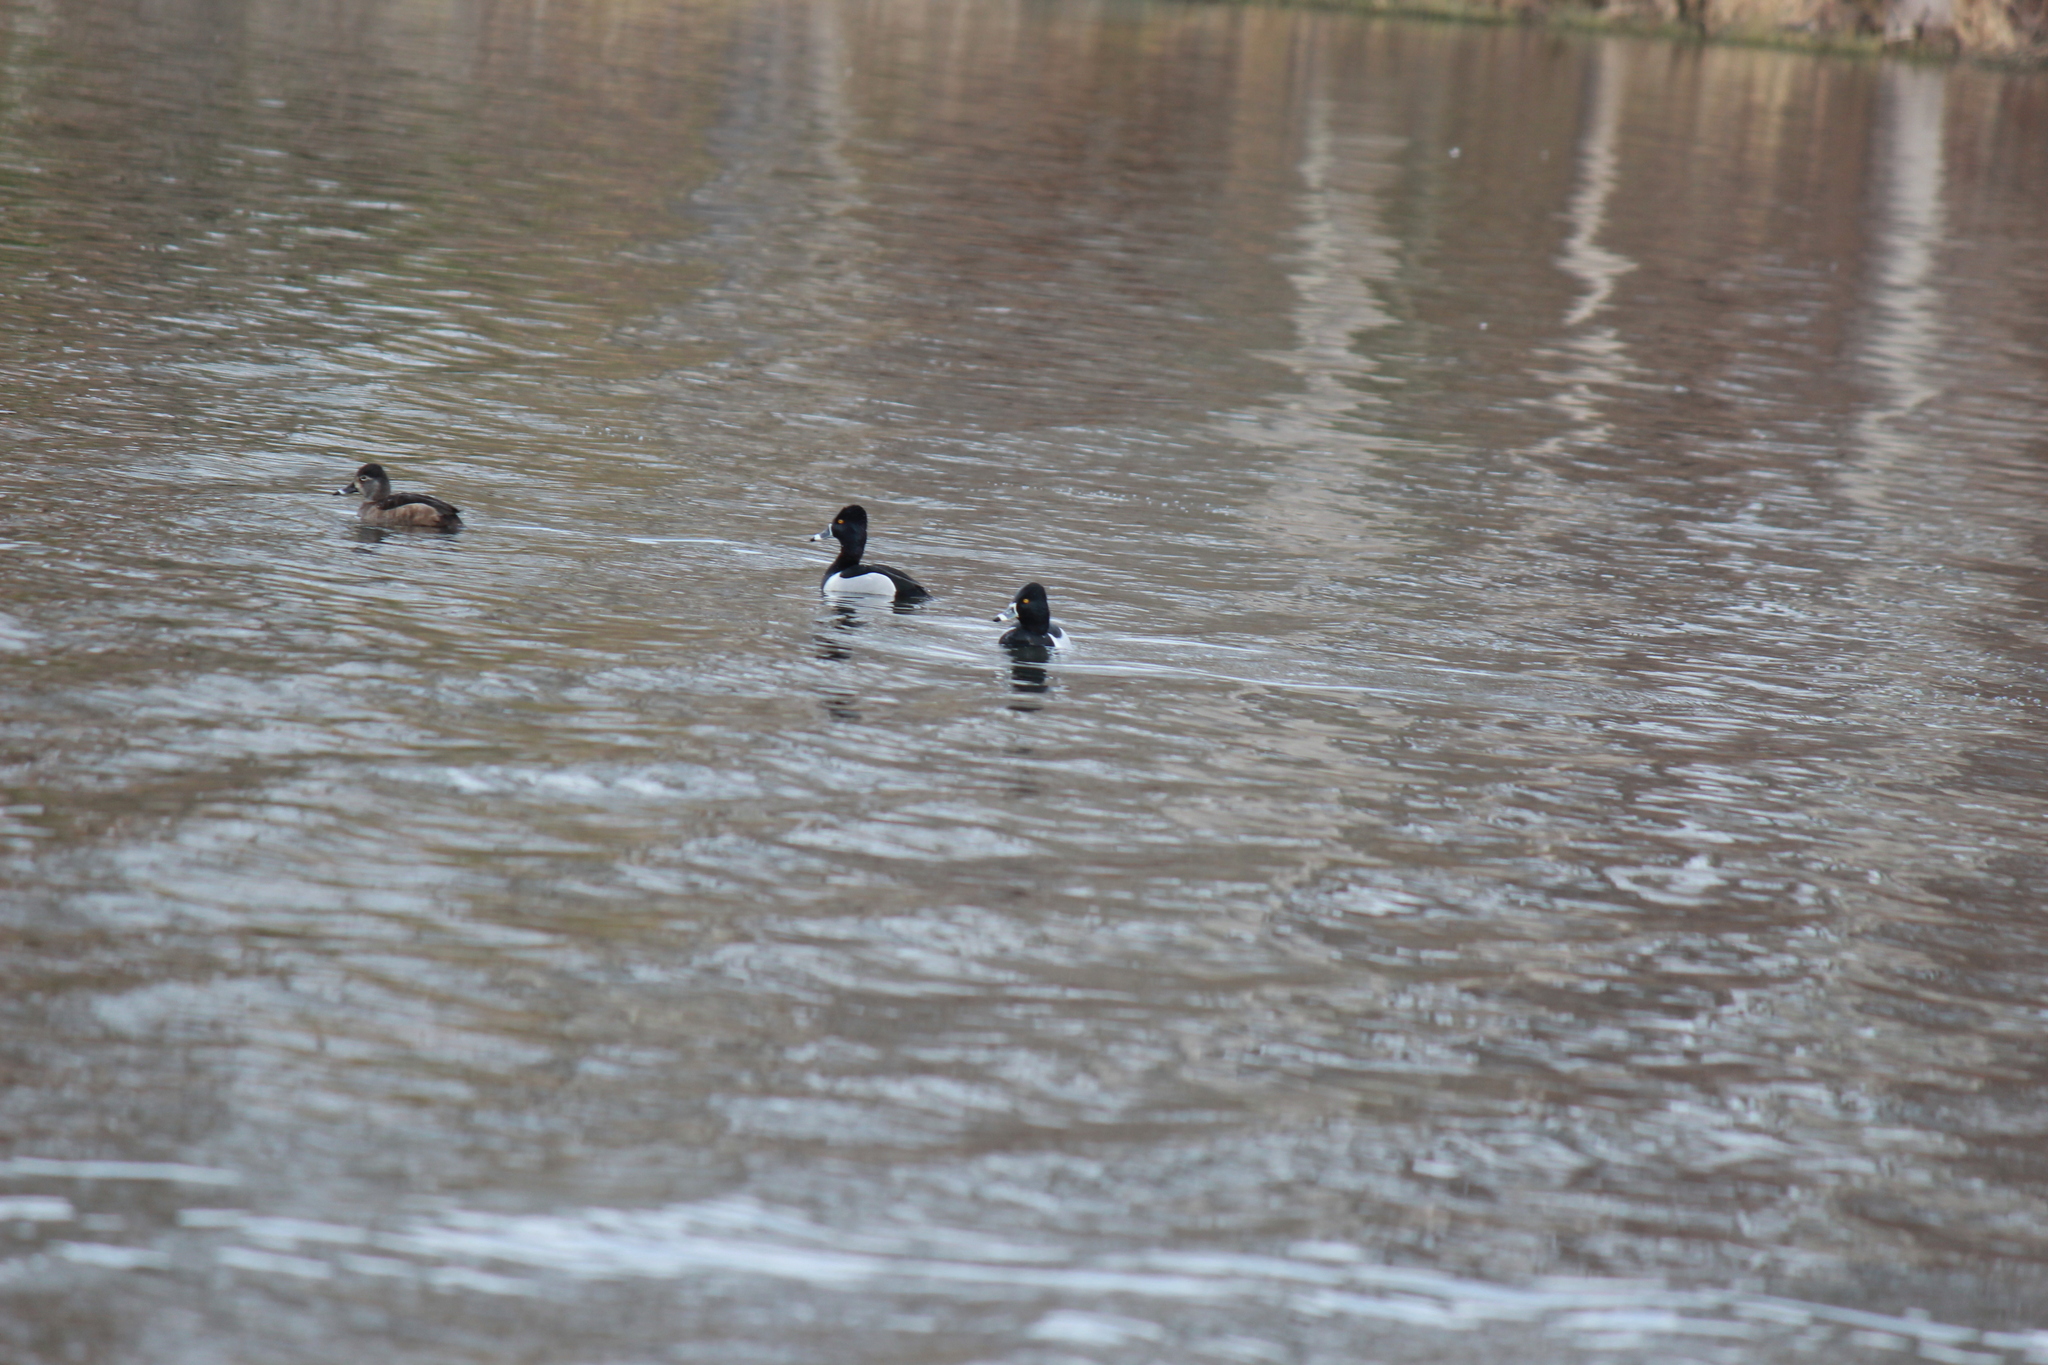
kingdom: Animalia
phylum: Chordata
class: Aves
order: Anseriformes
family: Anatidae
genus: Aythya
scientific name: Aythya collaris
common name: Ring-necked duck
